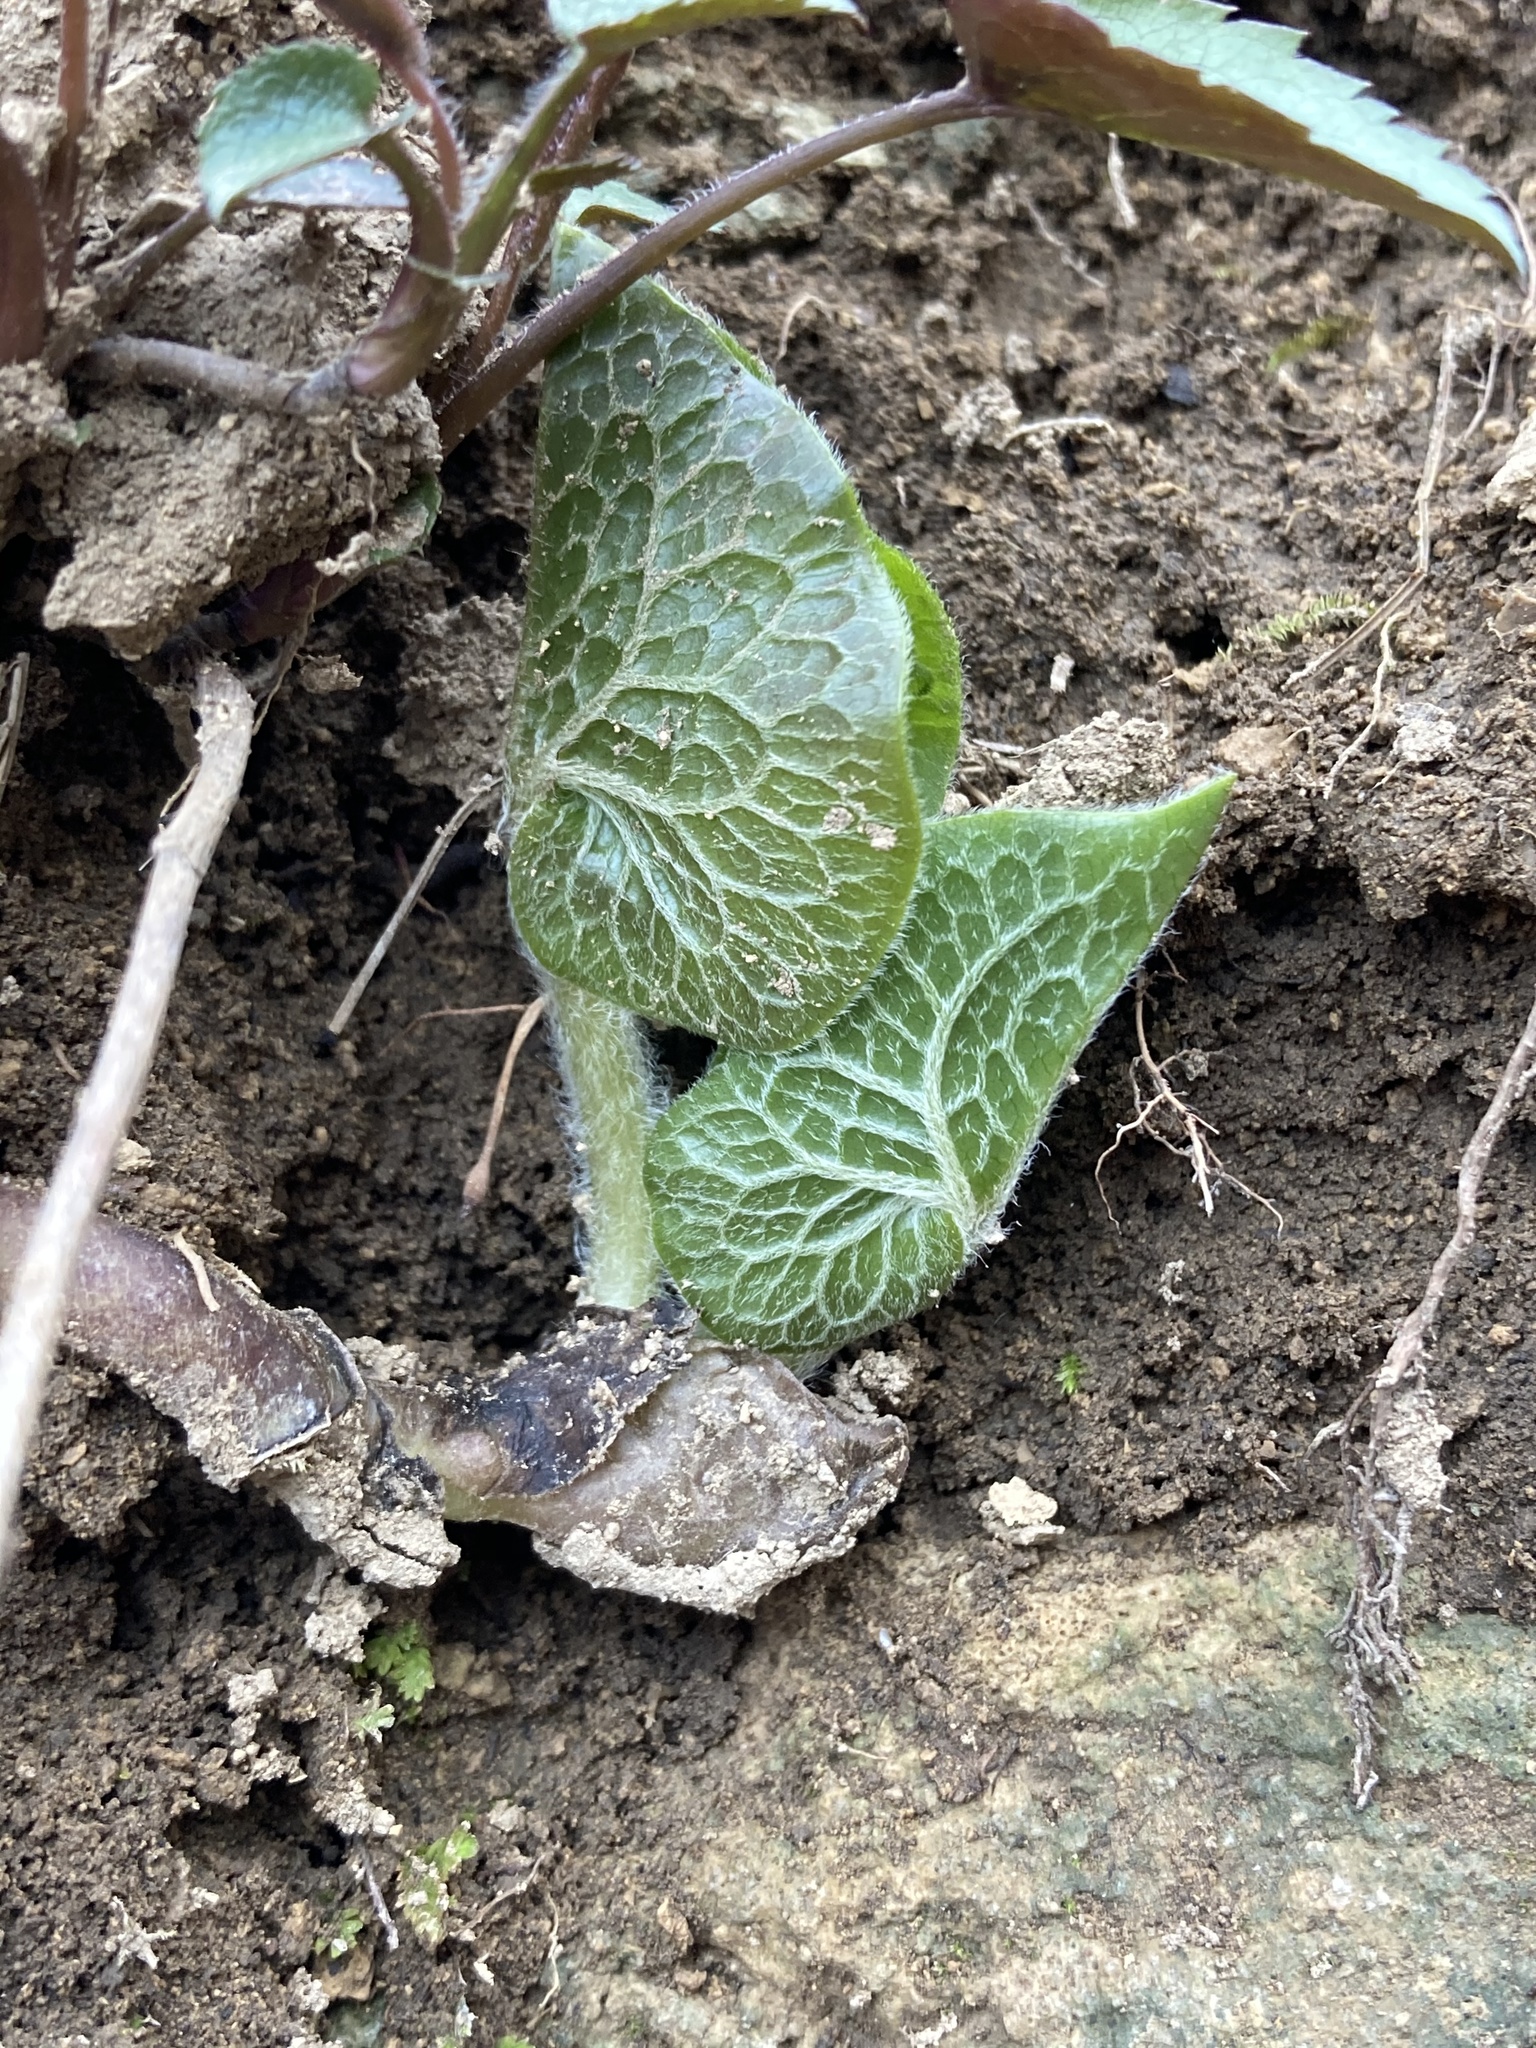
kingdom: Plantae
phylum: Tracheophyta
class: Magnoliopsida
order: Piperales
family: Aristolochiaceae
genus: Asarum
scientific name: Asarum canadense
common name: Wild ginger
